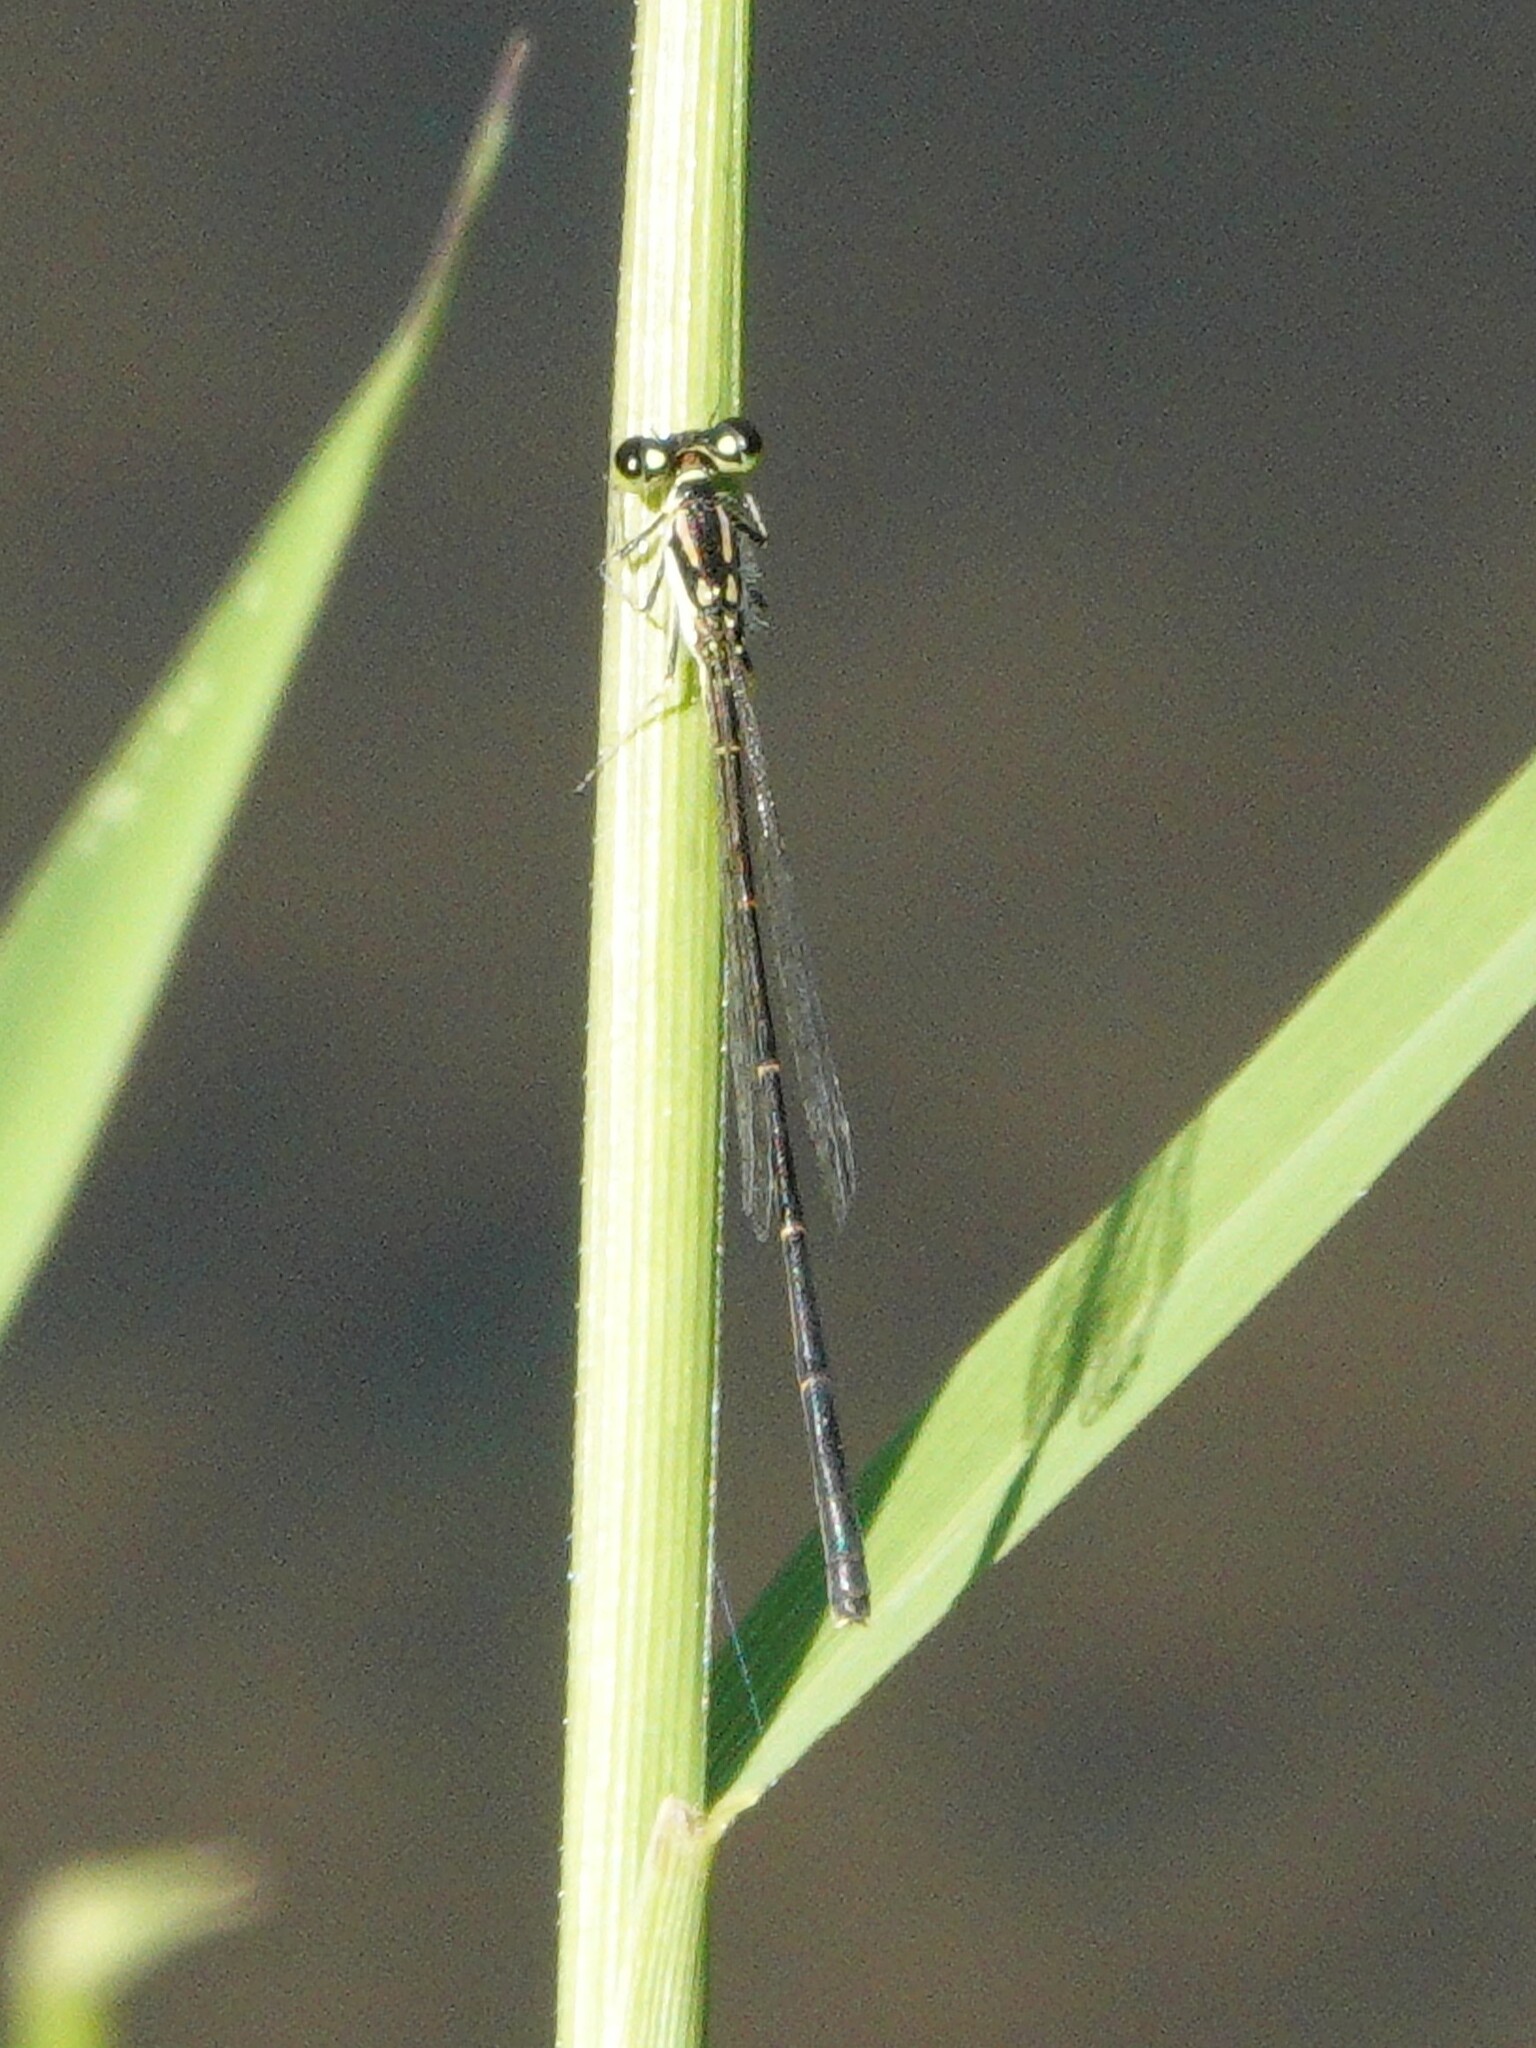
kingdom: Animalia
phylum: Arthropoda
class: Insecta
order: Odonata
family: Coenagrionidae
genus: Ischnura
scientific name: Ischnura posita
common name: Fragile forktail
